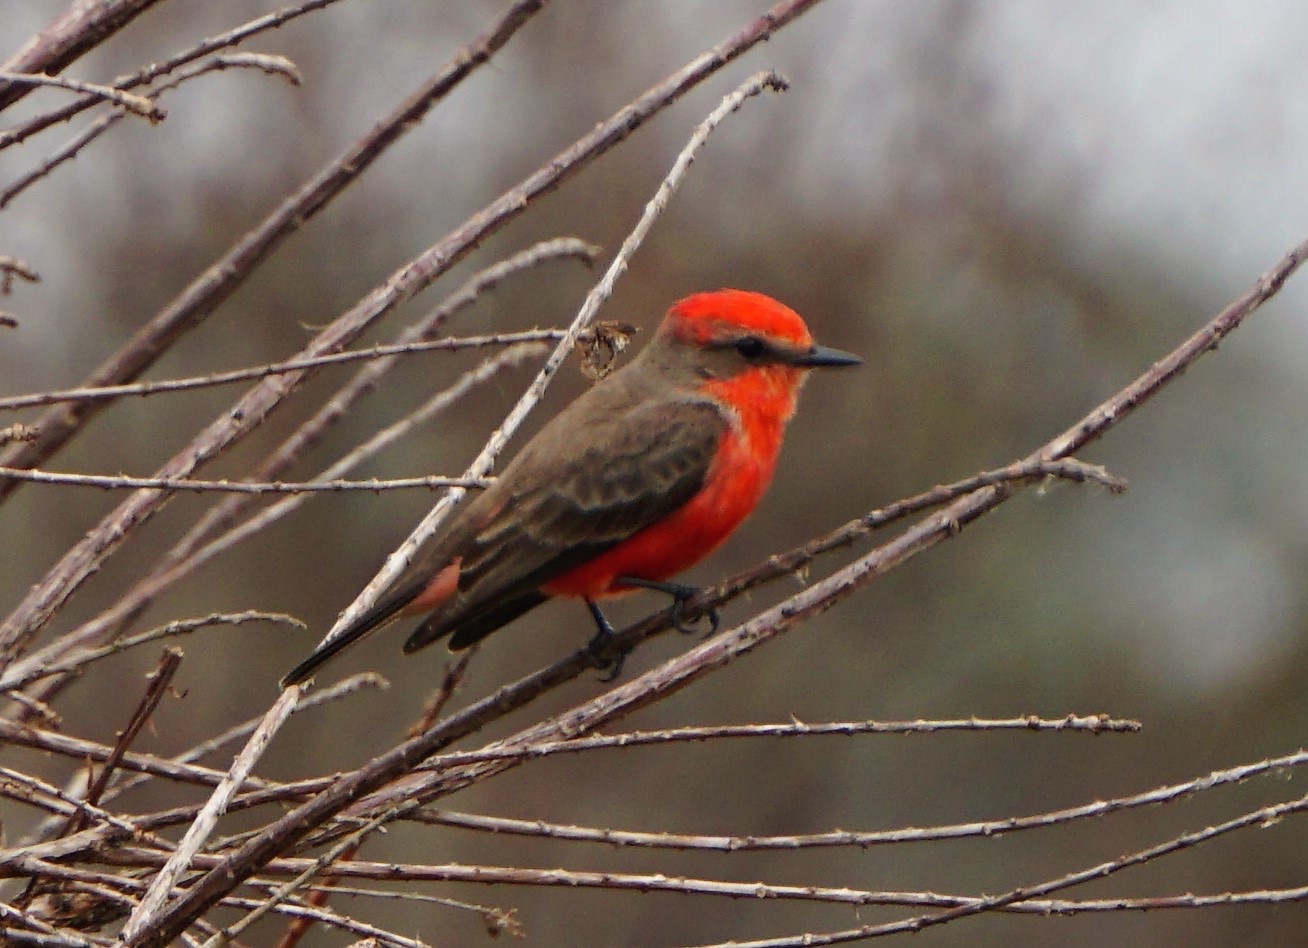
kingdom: Animalia
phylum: Chordata
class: Aves
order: Passeriformes
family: Tyrannidae
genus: Pyrocephalus
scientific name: Pyrocephalus rubinus
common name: Vermilion flycatcher
